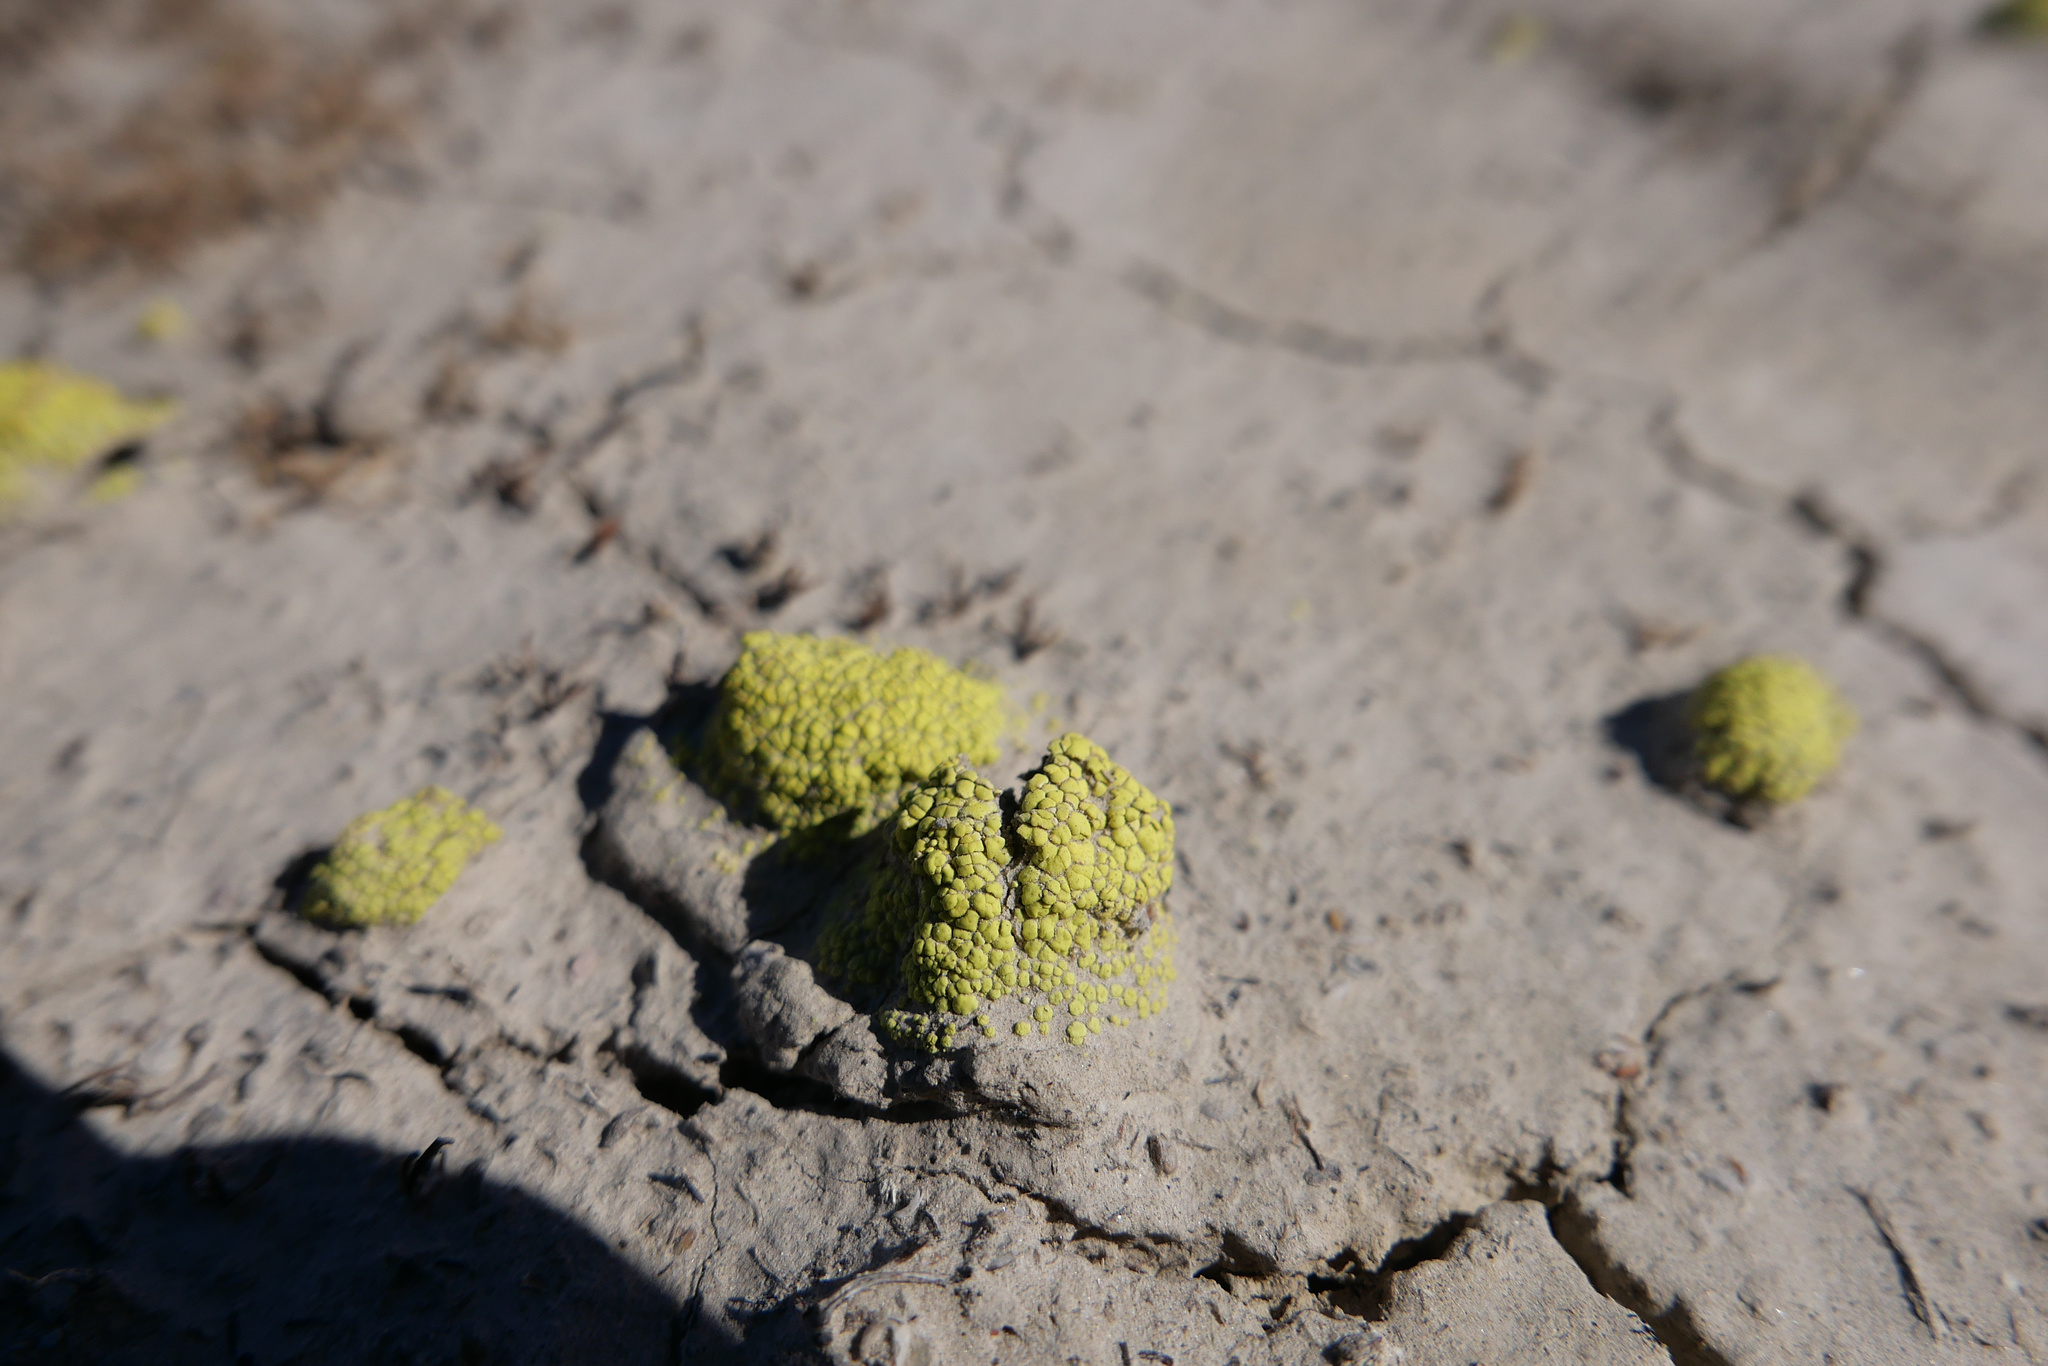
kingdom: Fungi
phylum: Ascomycota
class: Lecanoromycetes
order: Acarosporales
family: Acarosporaceae
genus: Acarospora
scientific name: Acarospora schleicheri
